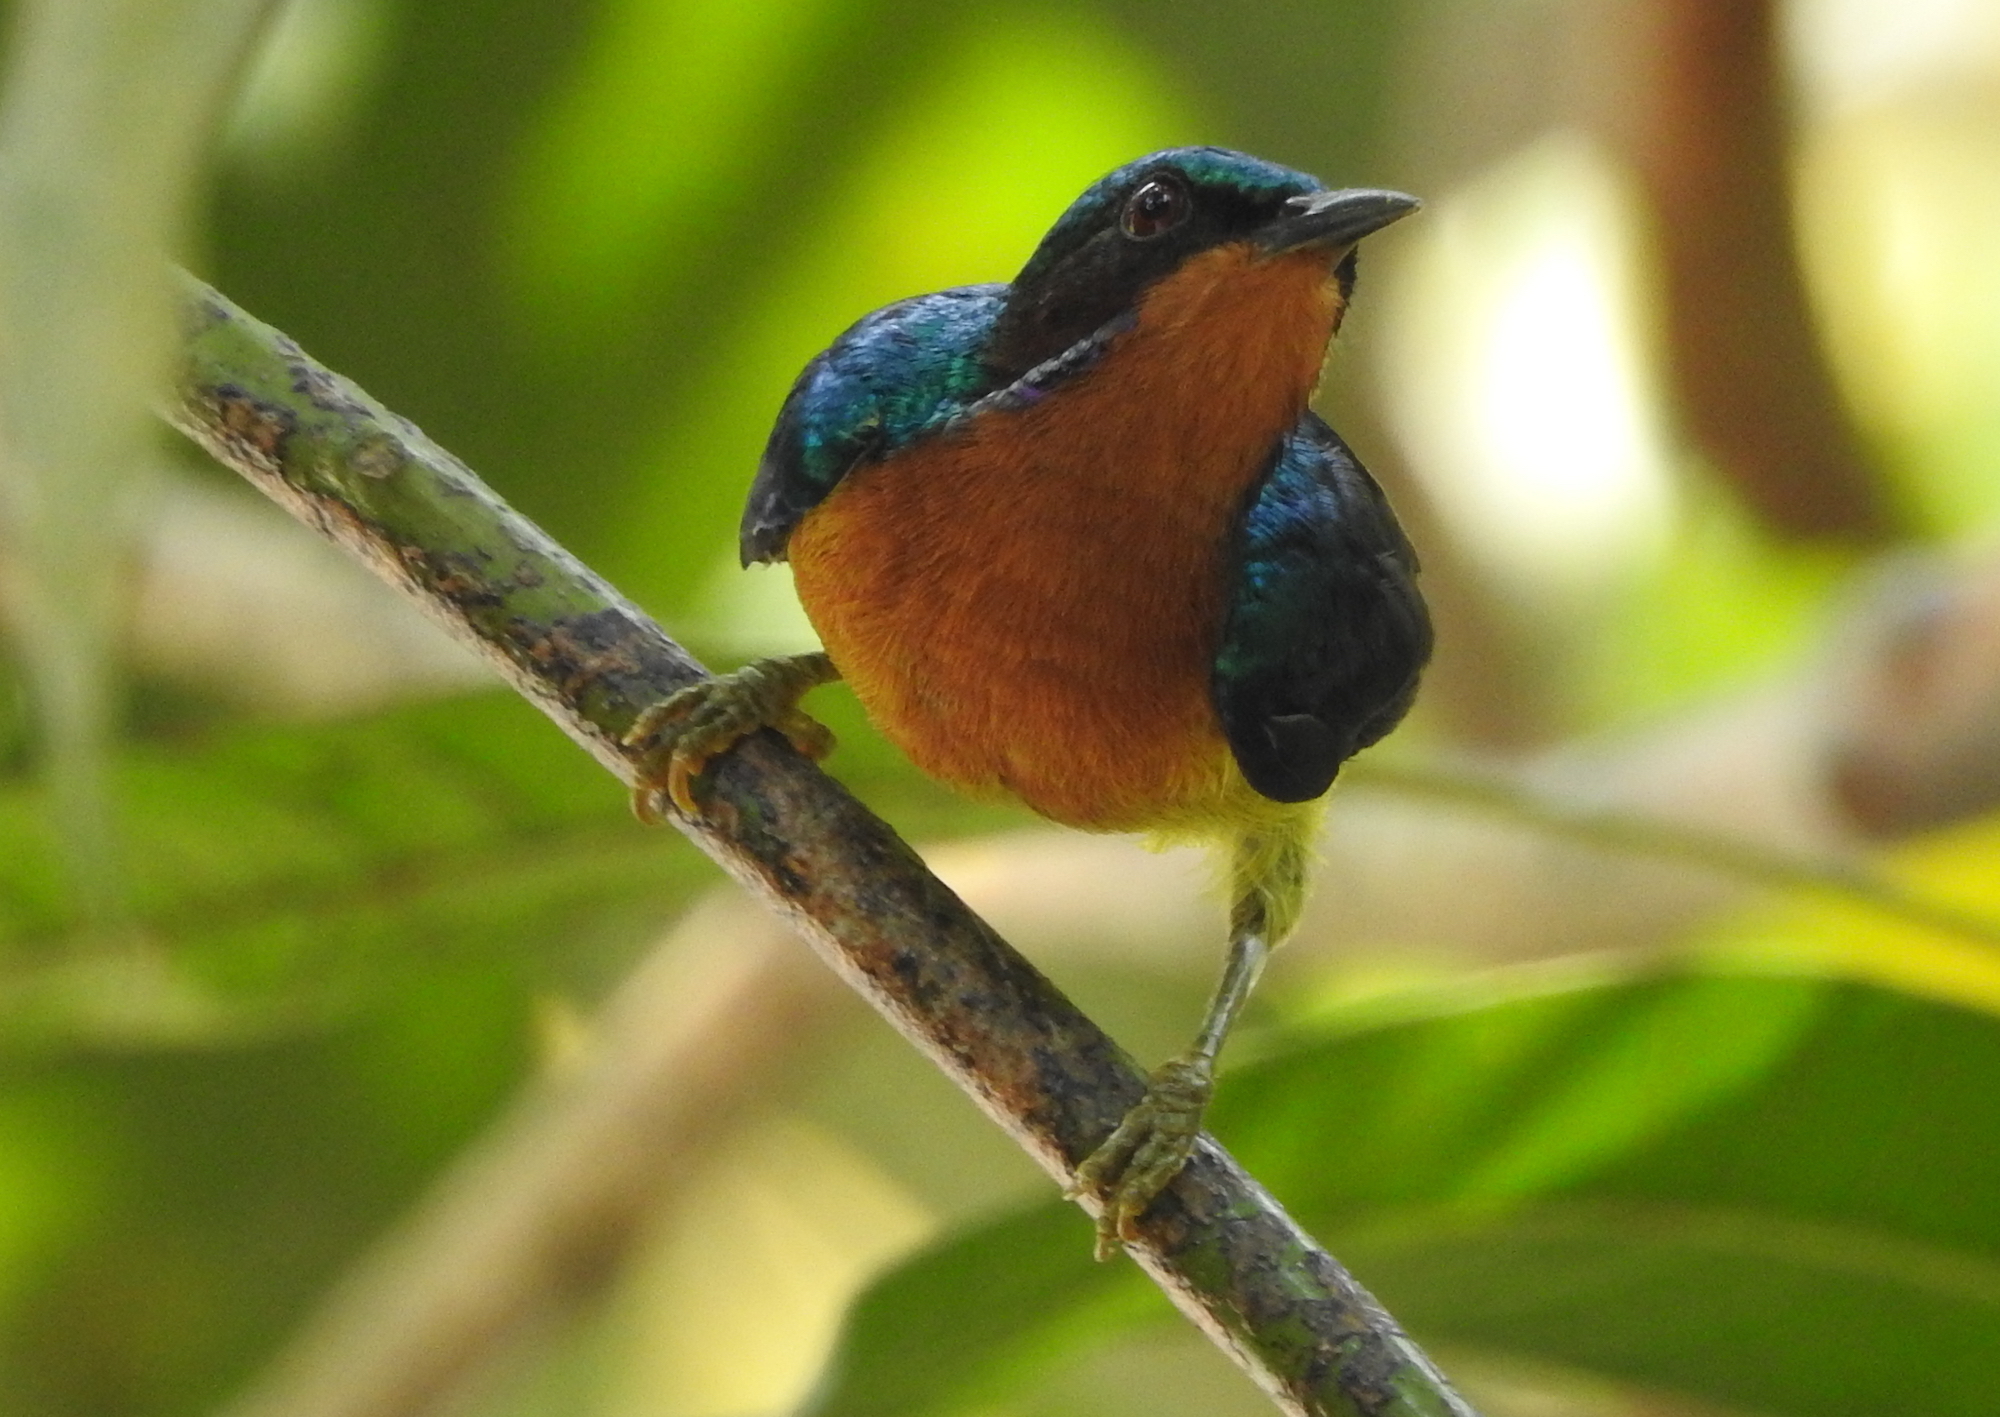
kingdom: Animalia
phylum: Chordata
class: Aves
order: Passeriformes
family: Nectariniidae
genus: Chalcoparia
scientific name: Chalcoparia singalensis
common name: Ruby-cheeked sunbird
